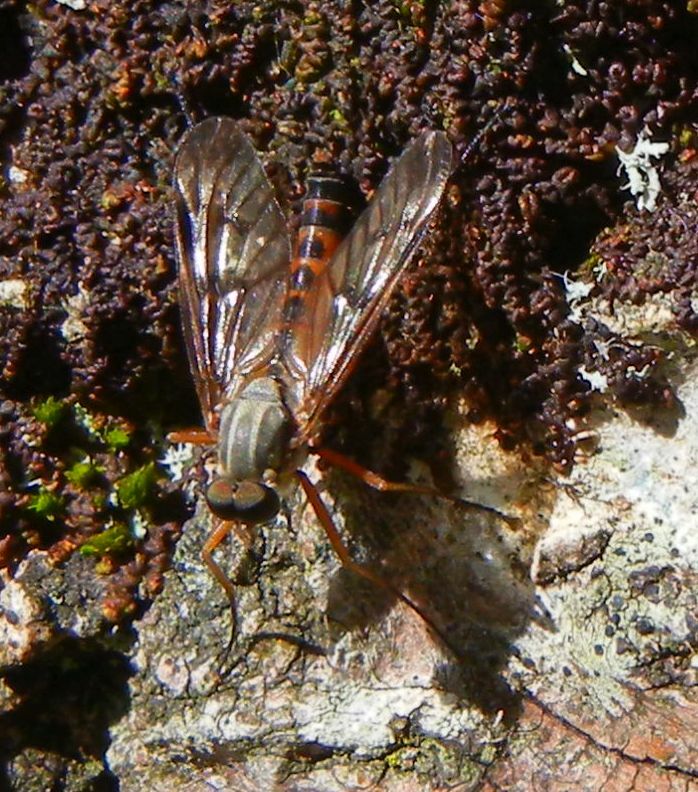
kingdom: Animalia
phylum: Arthropoda
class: Insecta
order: Diptera
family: Rhagionidae
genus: Rhagio
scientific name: Rhagio scolopacea
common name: Downlooker snipefly
